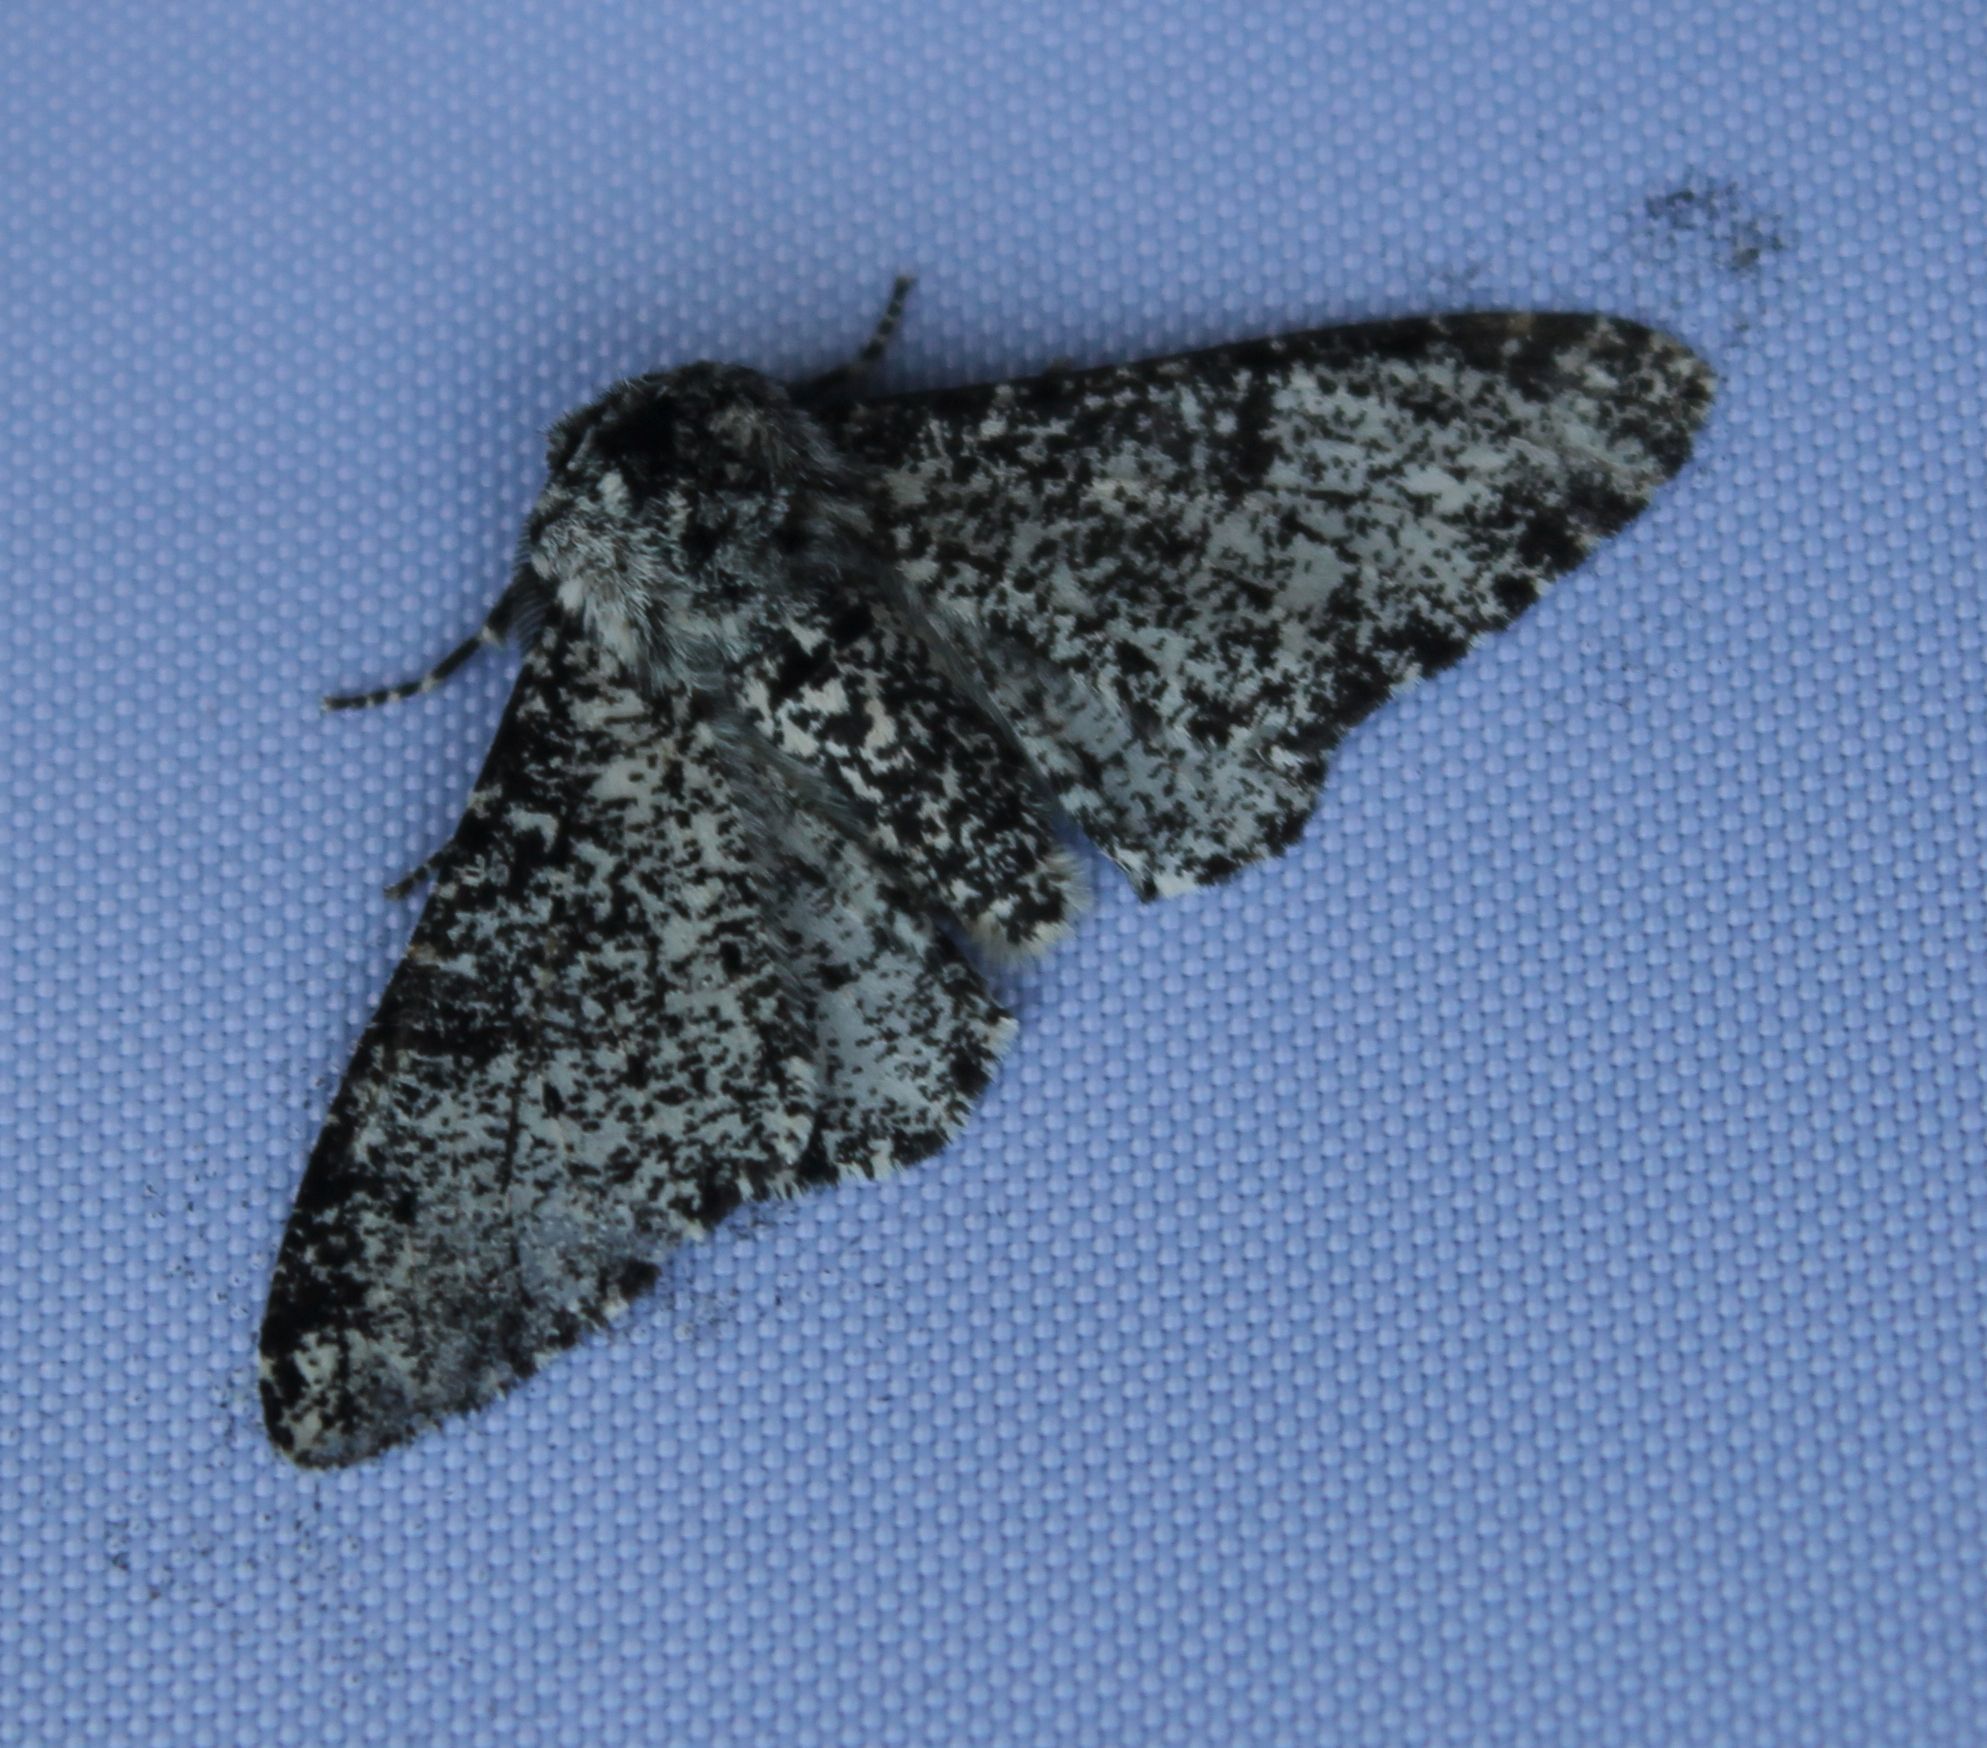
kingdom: Animalia
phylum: Arthropoda
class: Insecta
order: Lepidoptera
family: Geometridae
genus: Biston
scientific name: Biston betularia
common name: Peppered moth
